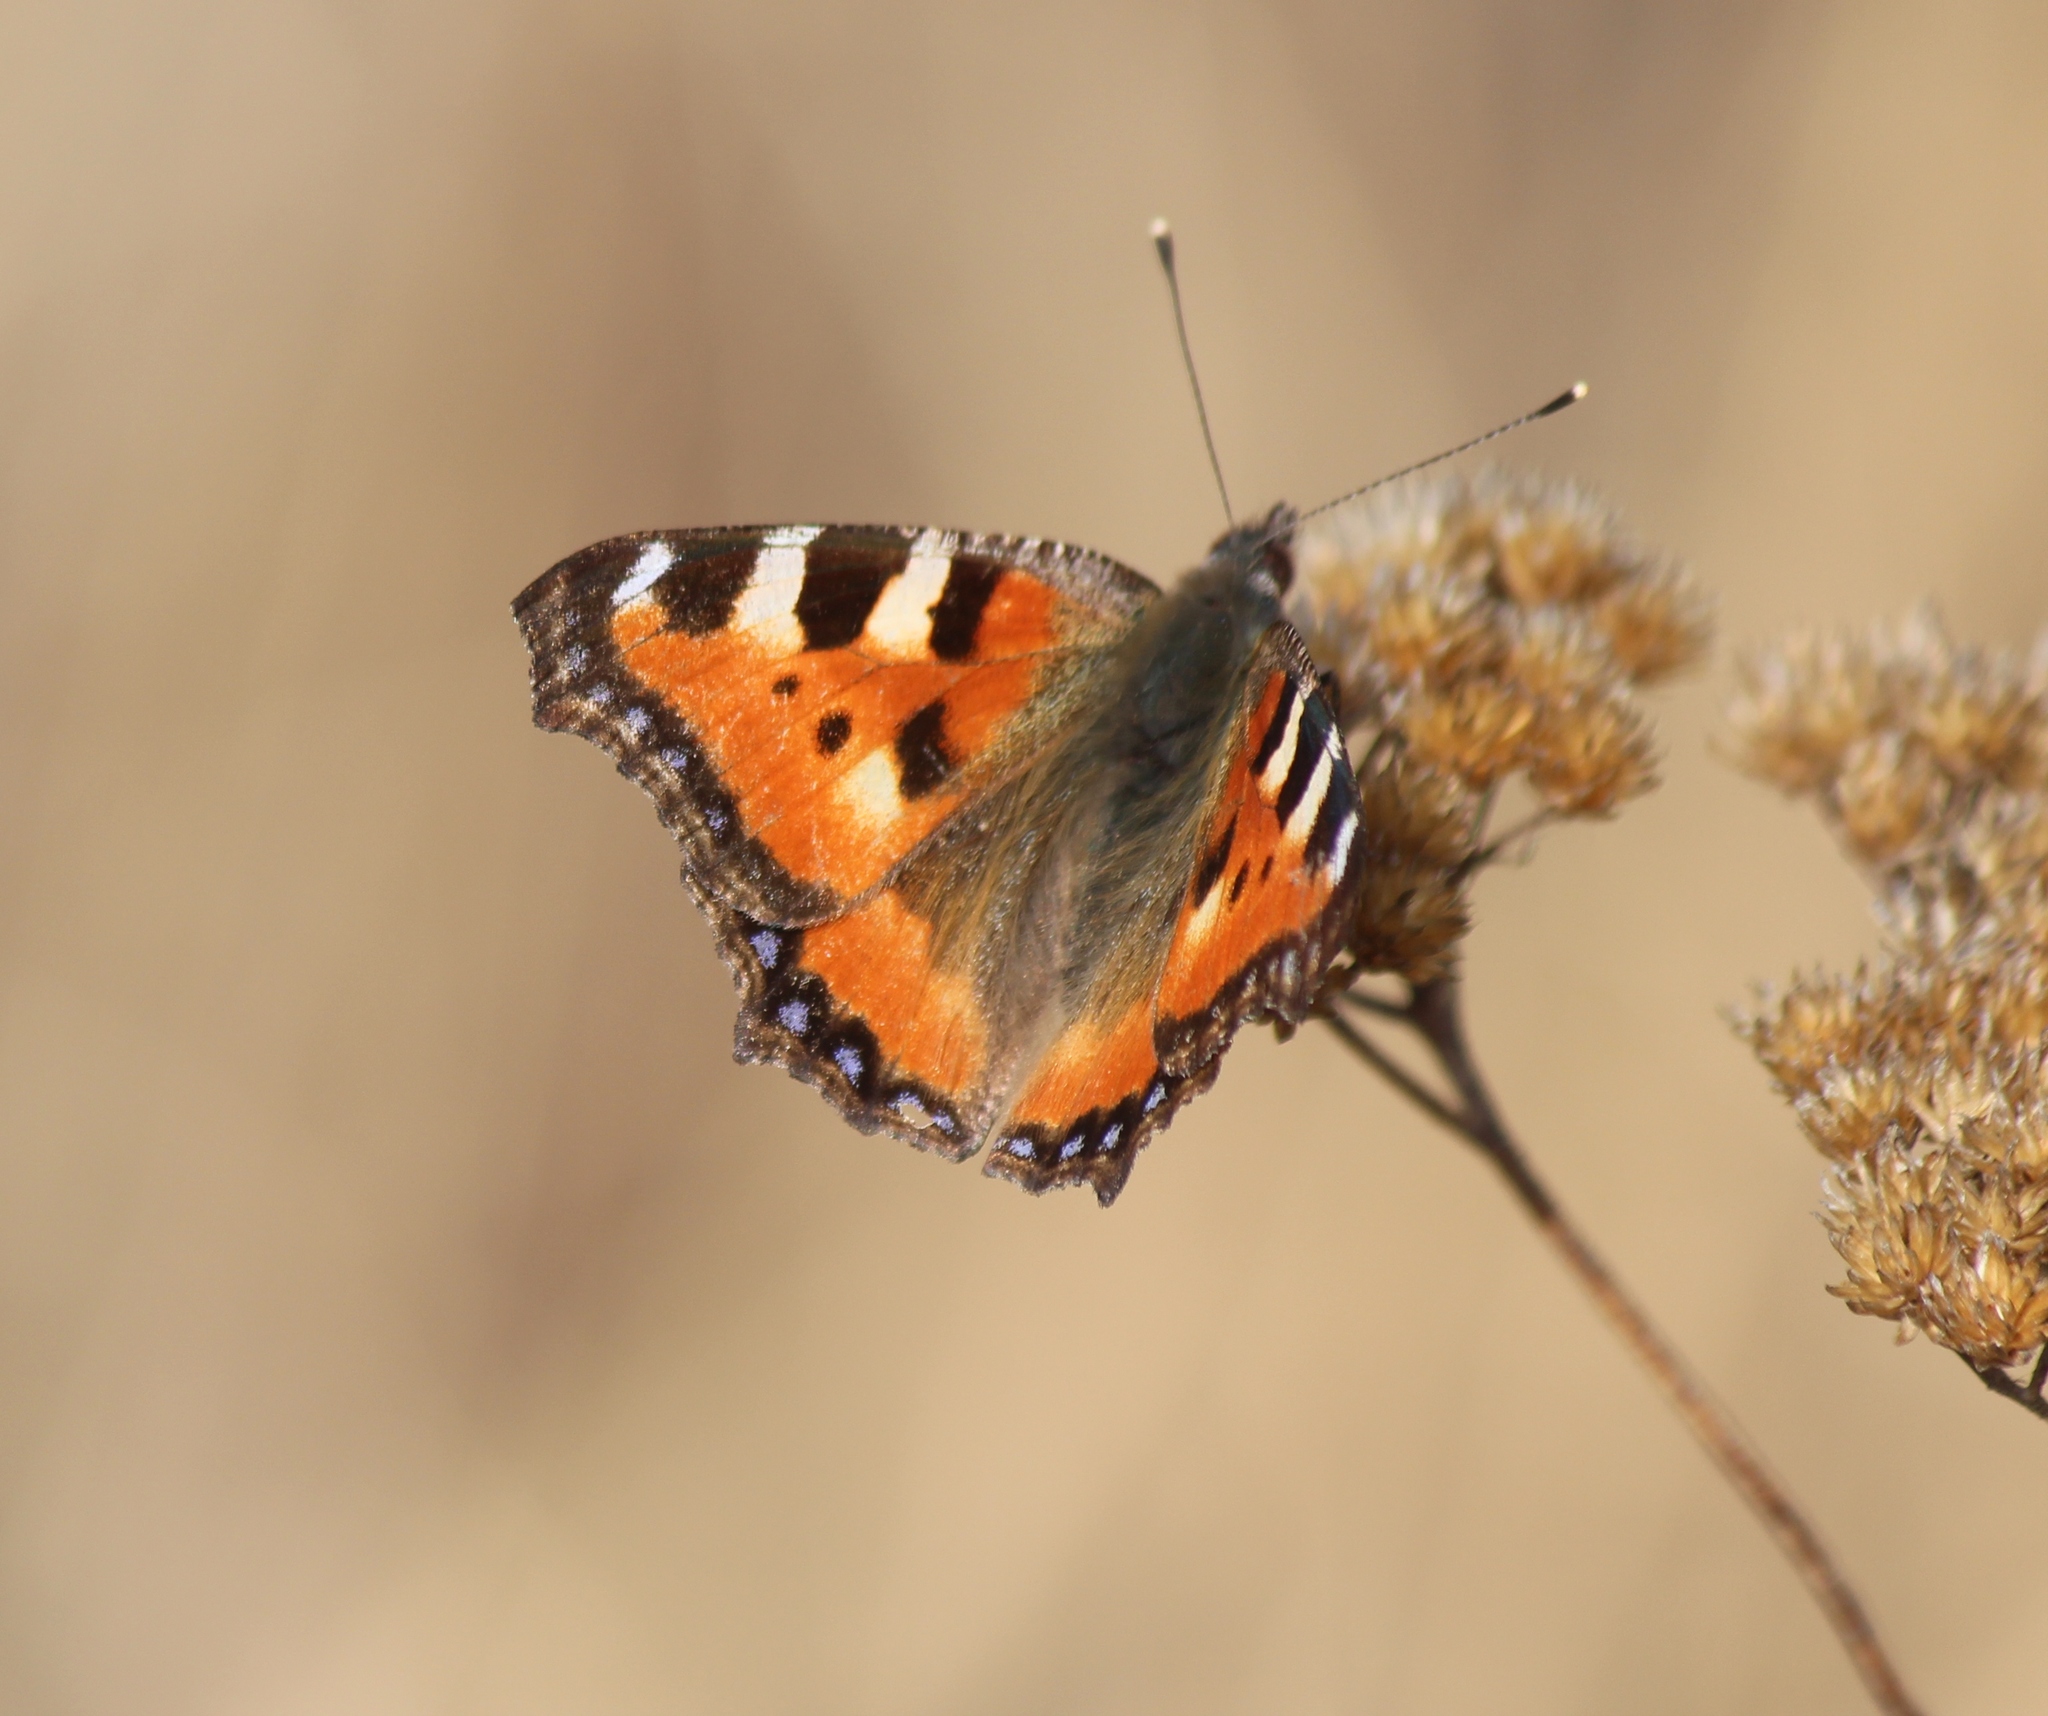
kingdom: Animalia
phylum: Arthropoda
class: Insecta
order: Lepidoptera
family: Nymphalidae
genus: Aglais
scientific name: Aglais urticae
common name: Small tortoiseshell
